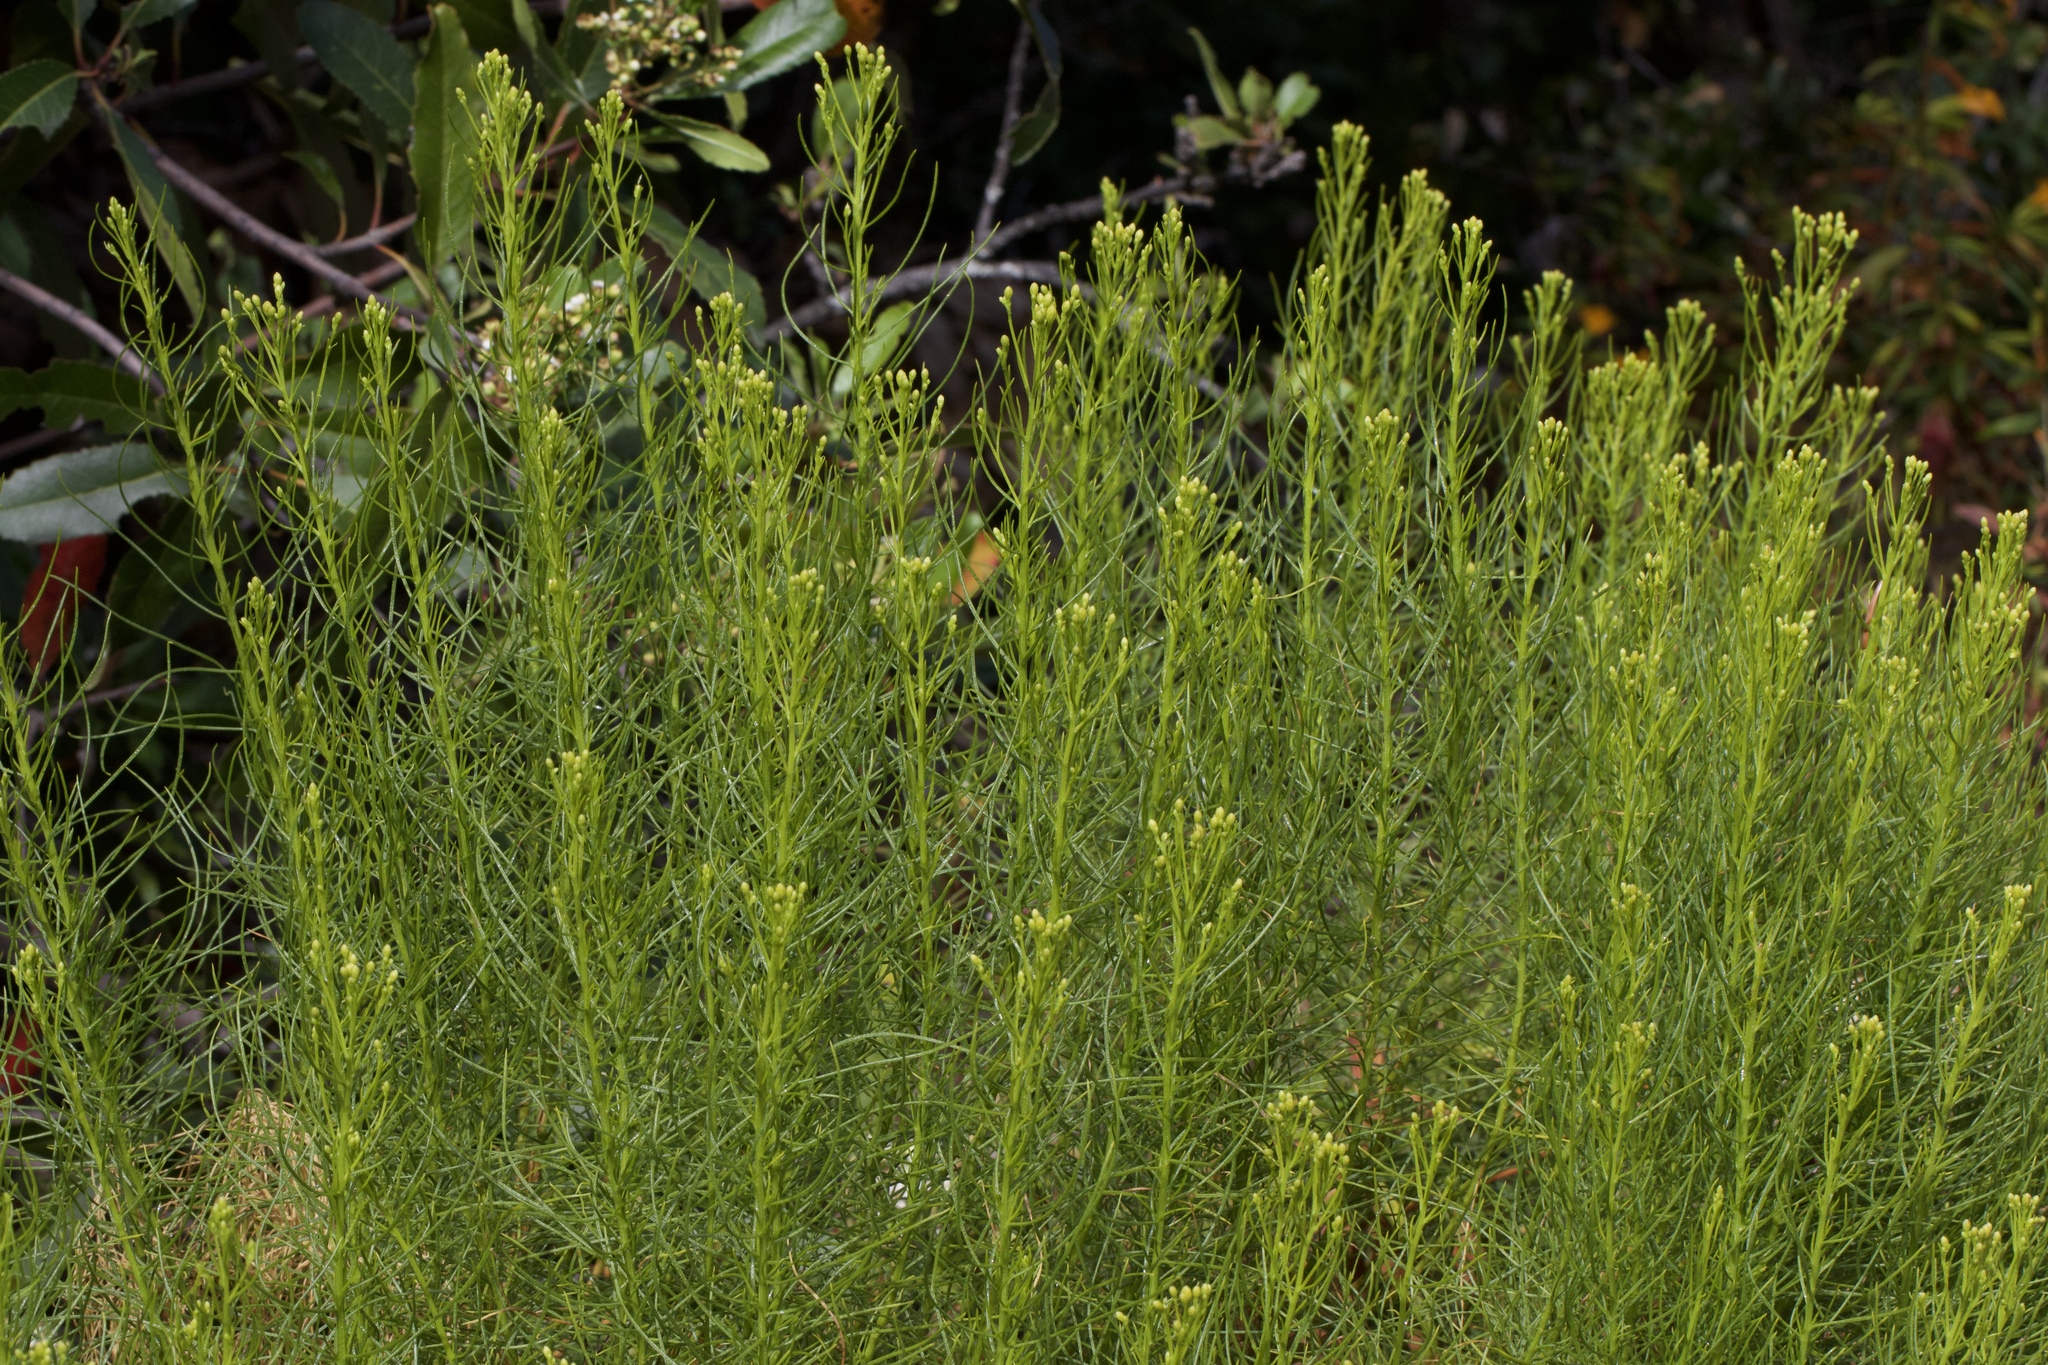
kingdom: Plantae
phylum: Tracheophyta
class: Magnoliopsida
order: Asterales
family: Asteraceae
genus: Ericameria
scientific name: Ericameria arborescens
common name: Goldenfleece
